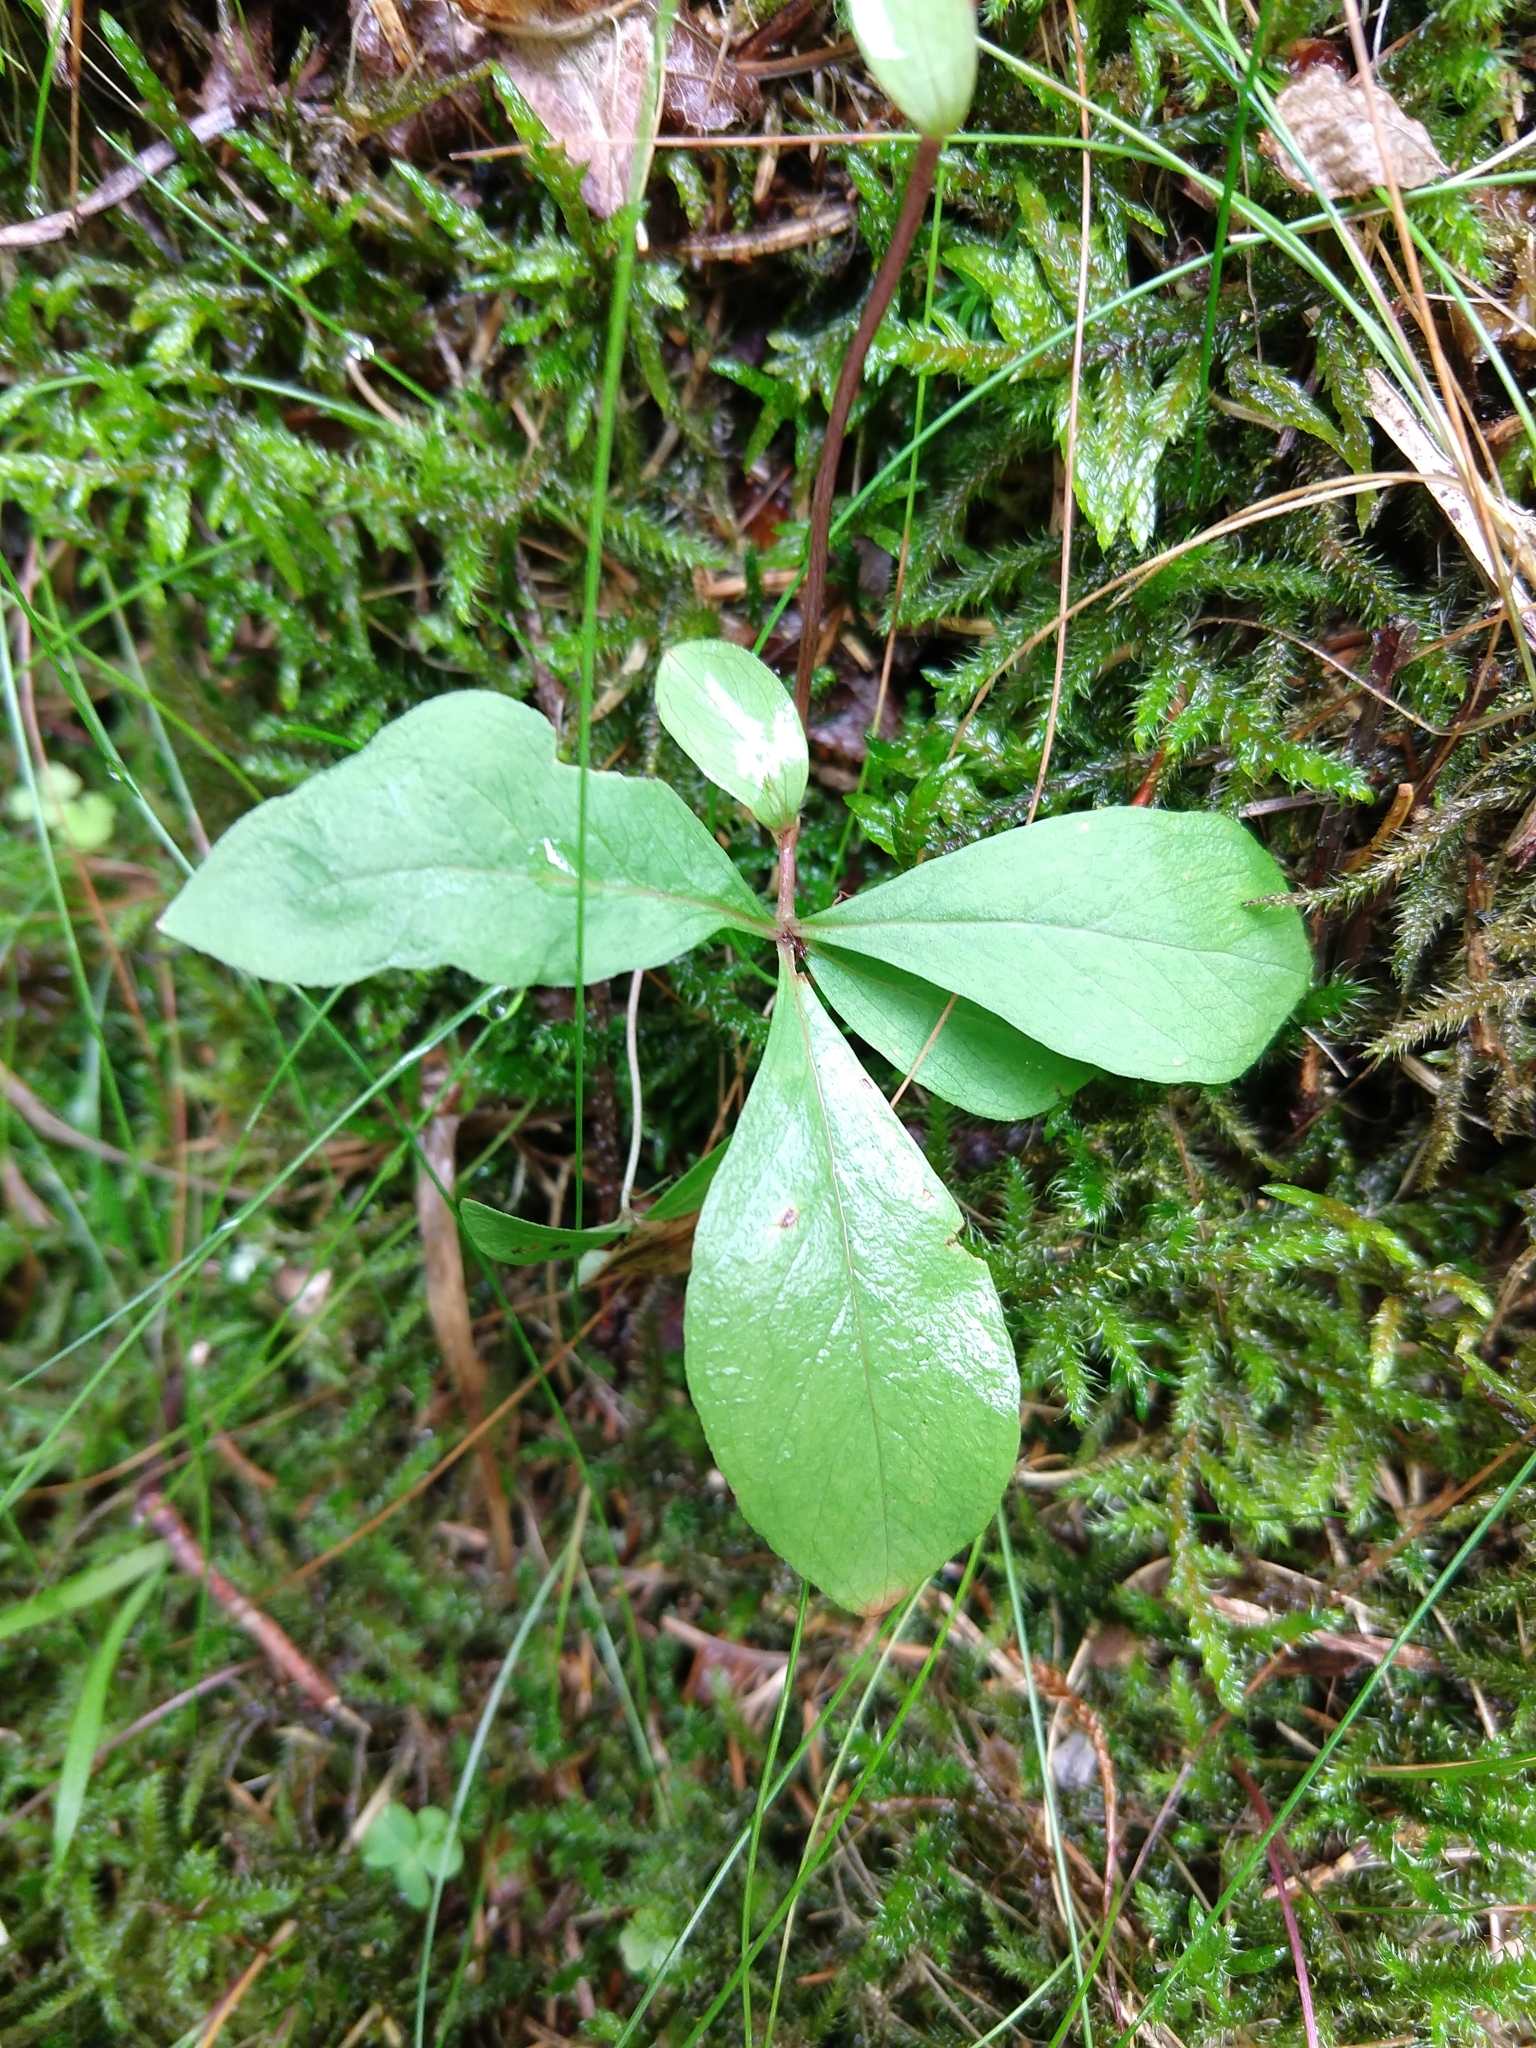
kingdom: Plantae
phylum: Tracheophyta
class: Magnoliopsida
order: Ericales
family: Primulaceae
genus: Lysimachia
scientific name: Lysimachia europaea
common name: Arctic starflower
